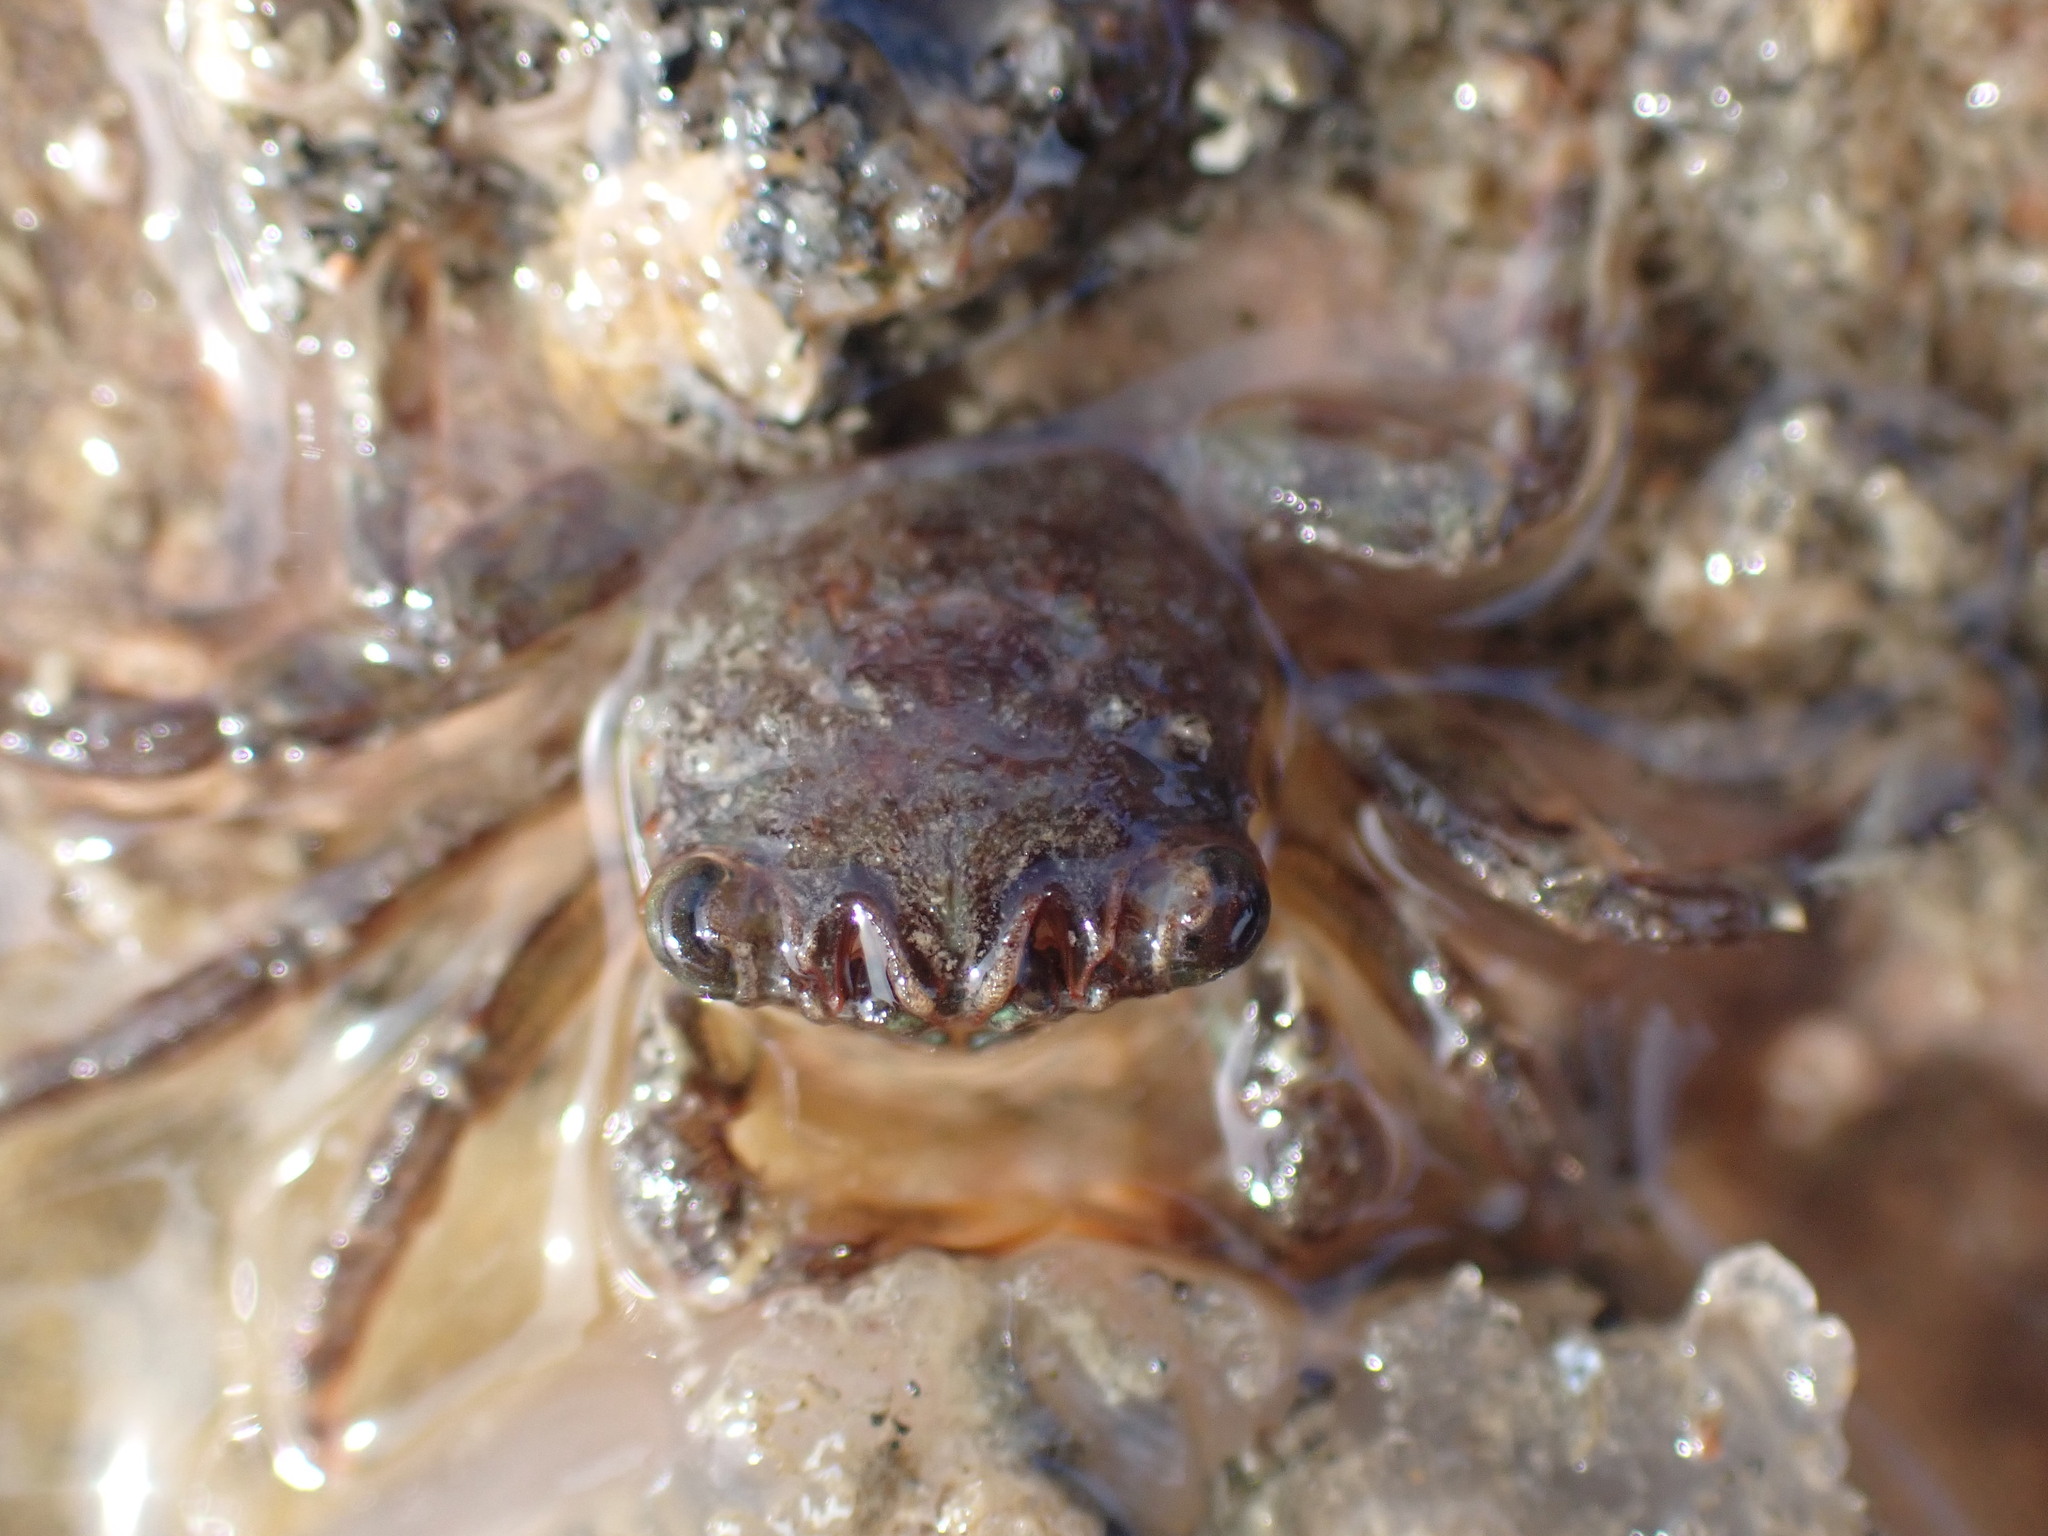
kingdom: Animalia
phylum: Arthropoda
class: Malacostraca
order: Decapoda
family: Plagusiidae
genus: Guinusia
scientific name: Guinusia chabrus
